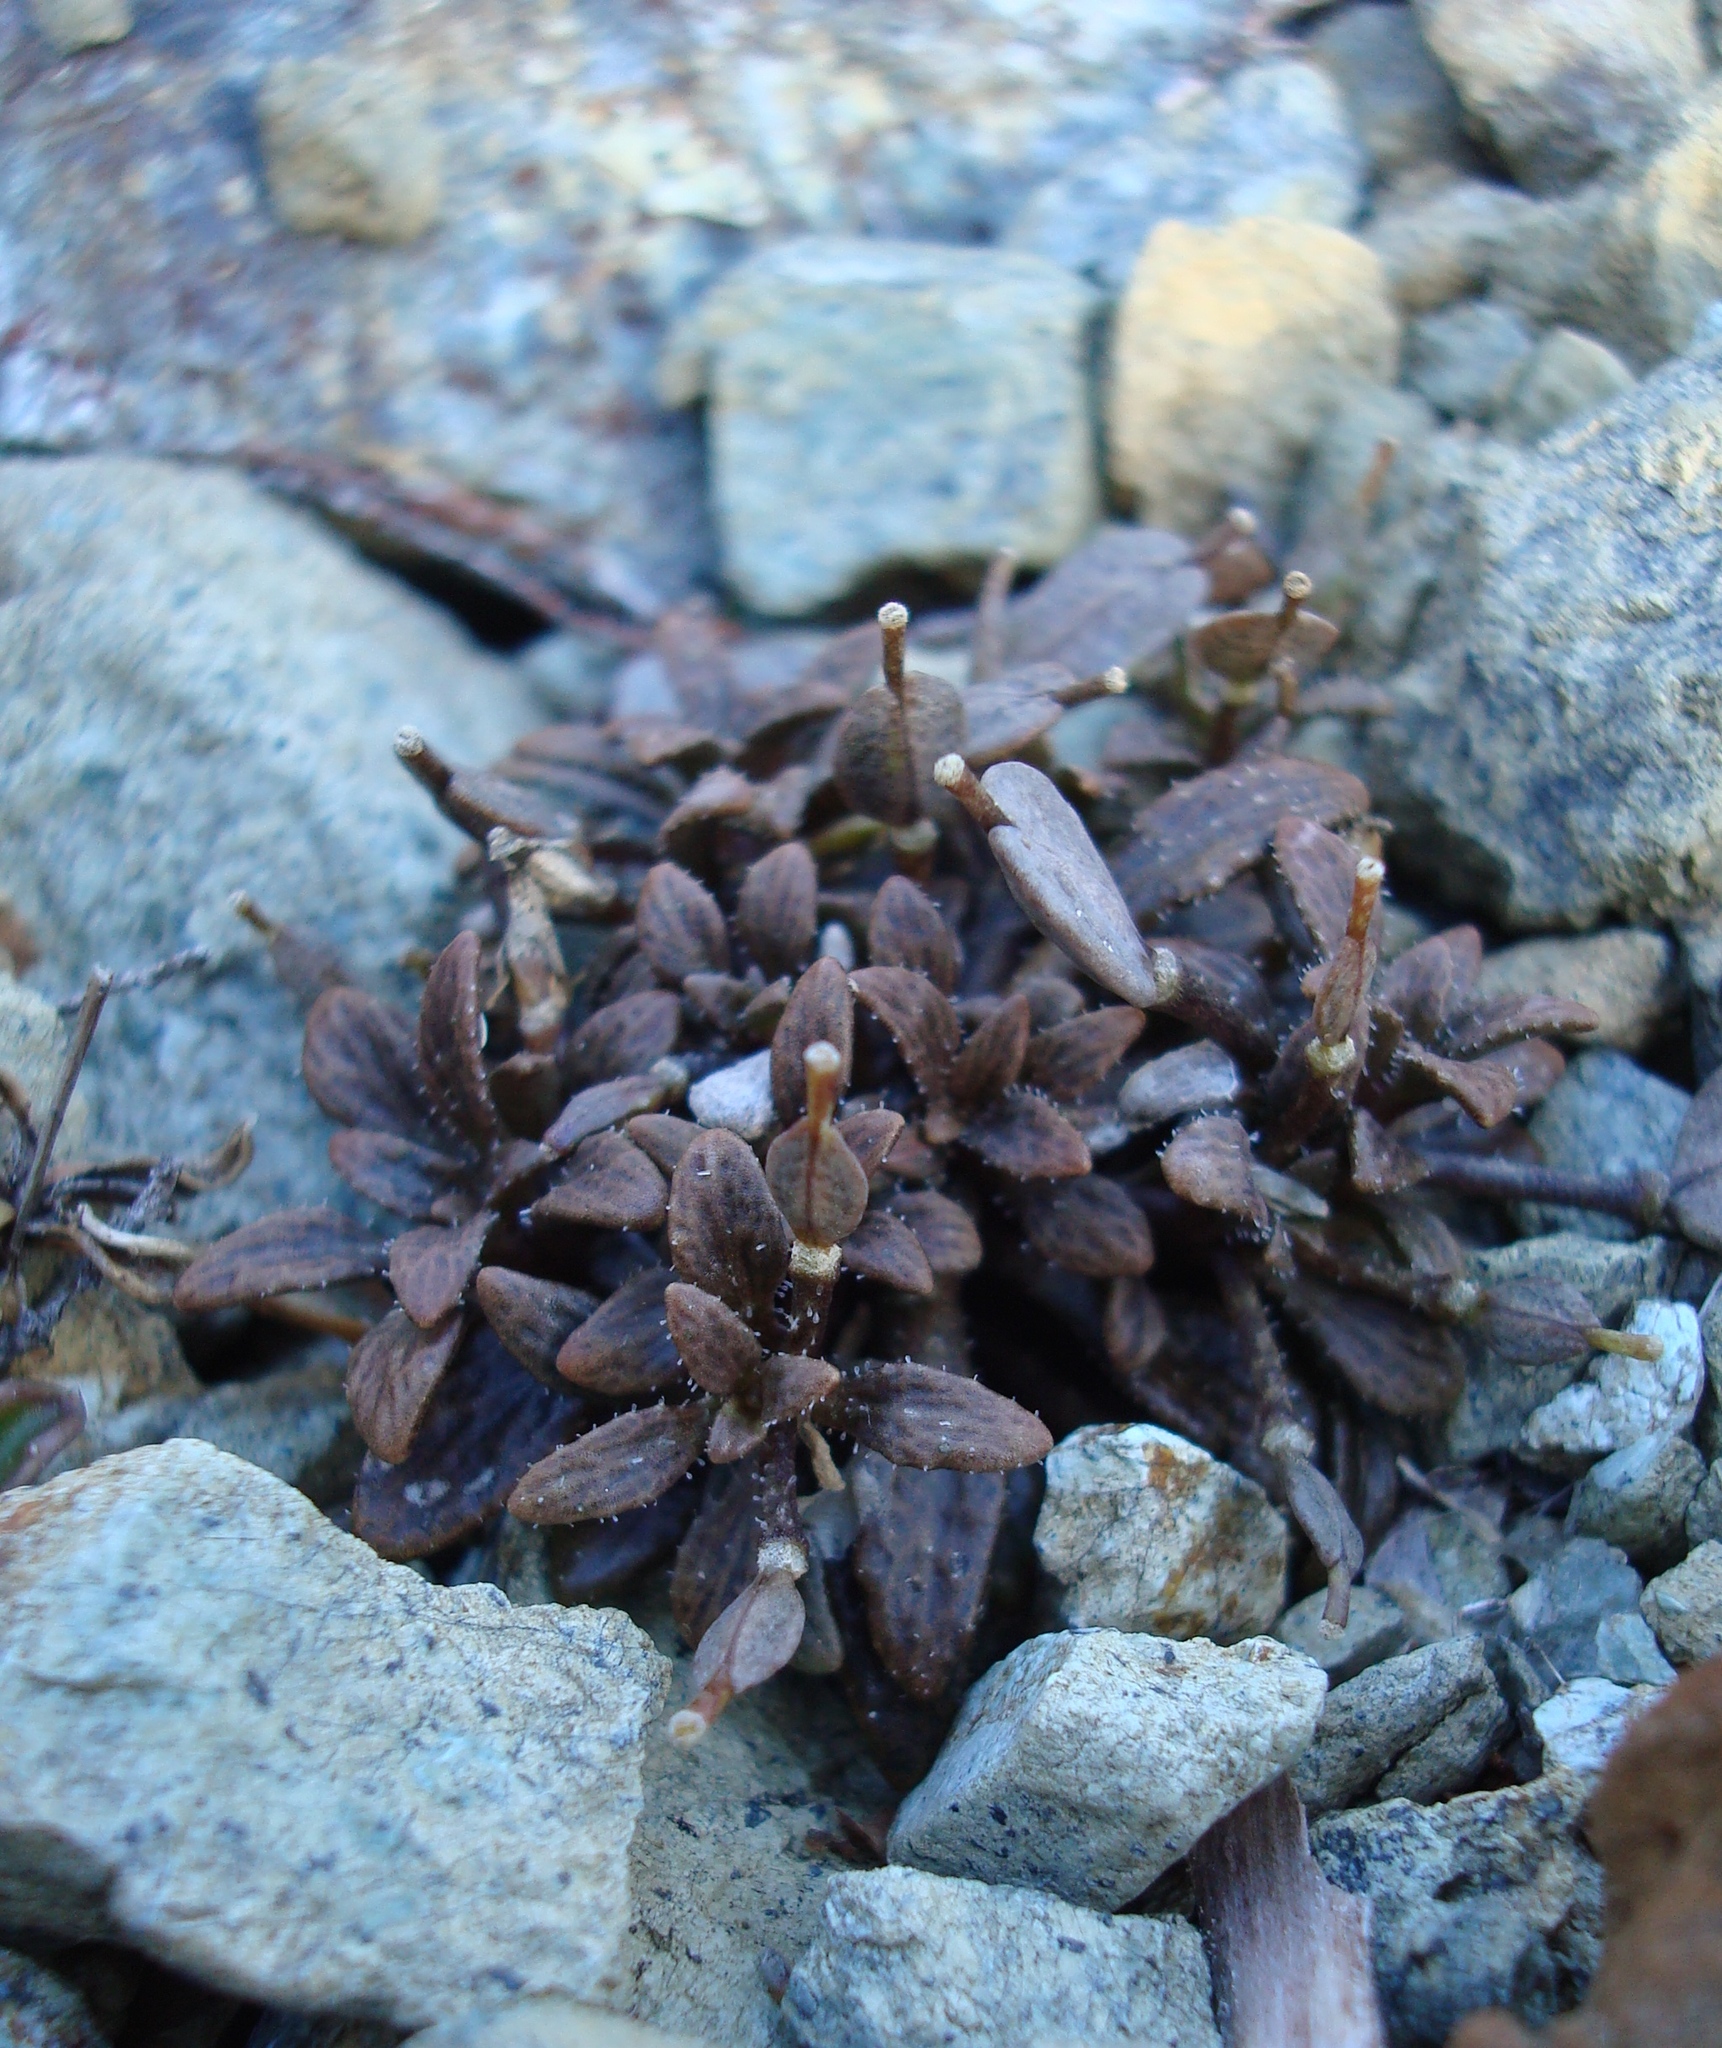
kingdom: Plantae
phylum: Tracheophyta
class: Magnoliopsida
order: Brassicales
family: Brassicaceae
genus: Notothlaspi
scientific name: Notothlaspi australe
